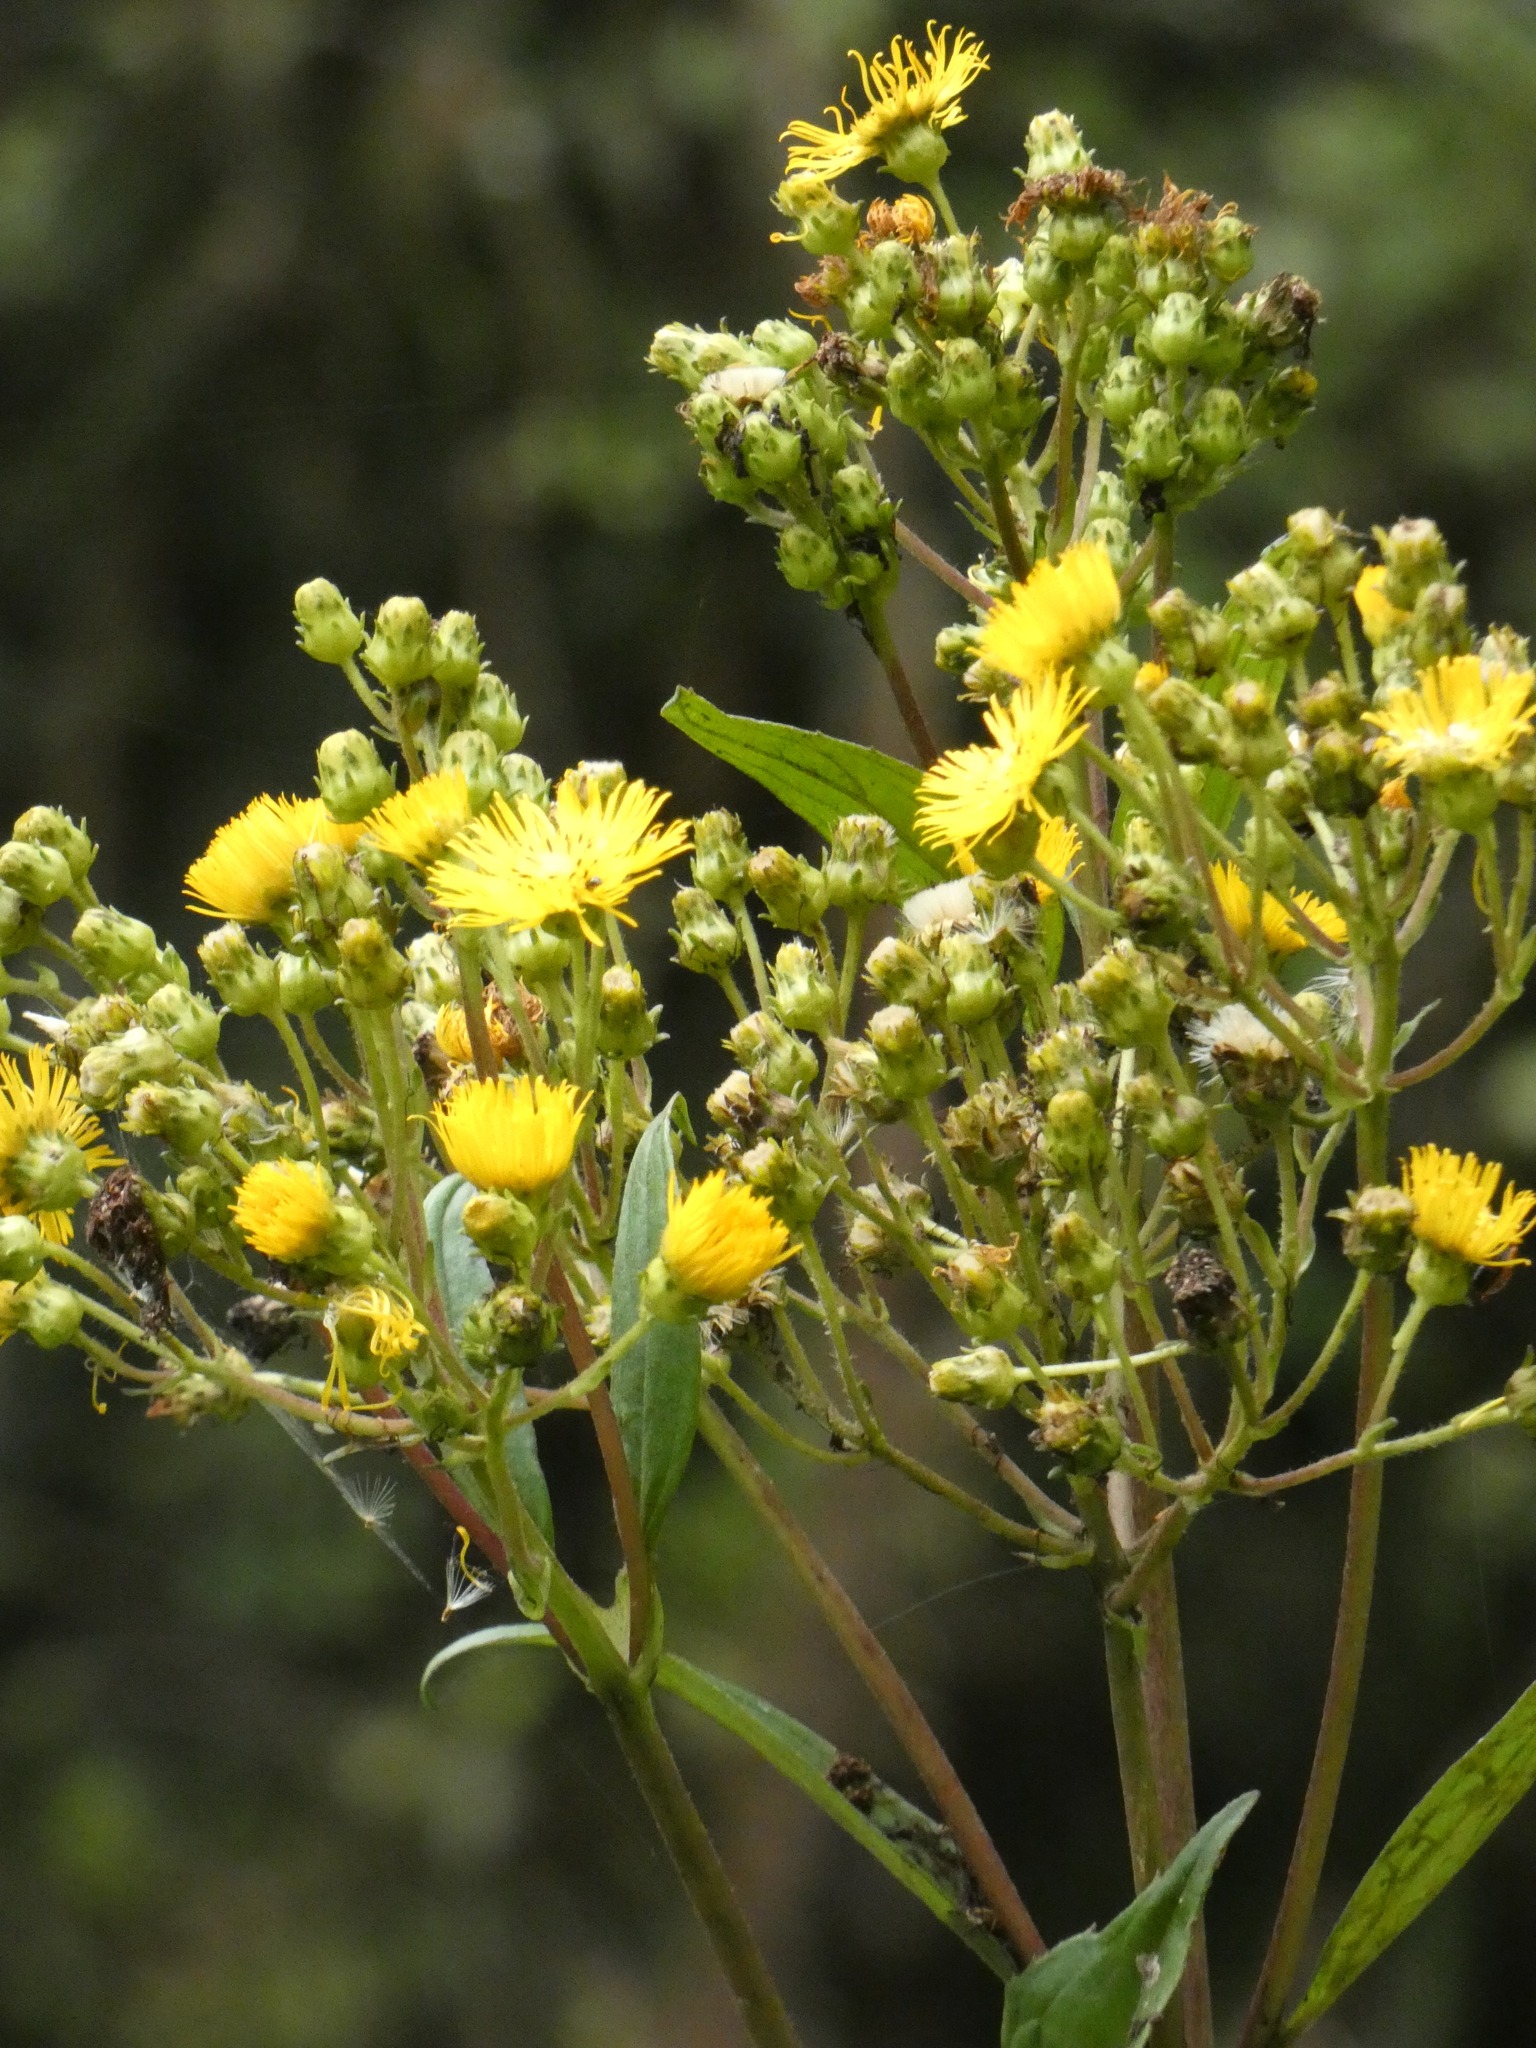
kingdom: Plantae
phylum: Tracheophyta
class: Magnoliopsida
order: Asterales
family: Asteraceae
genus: Erato
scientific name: Erato polymnioides
